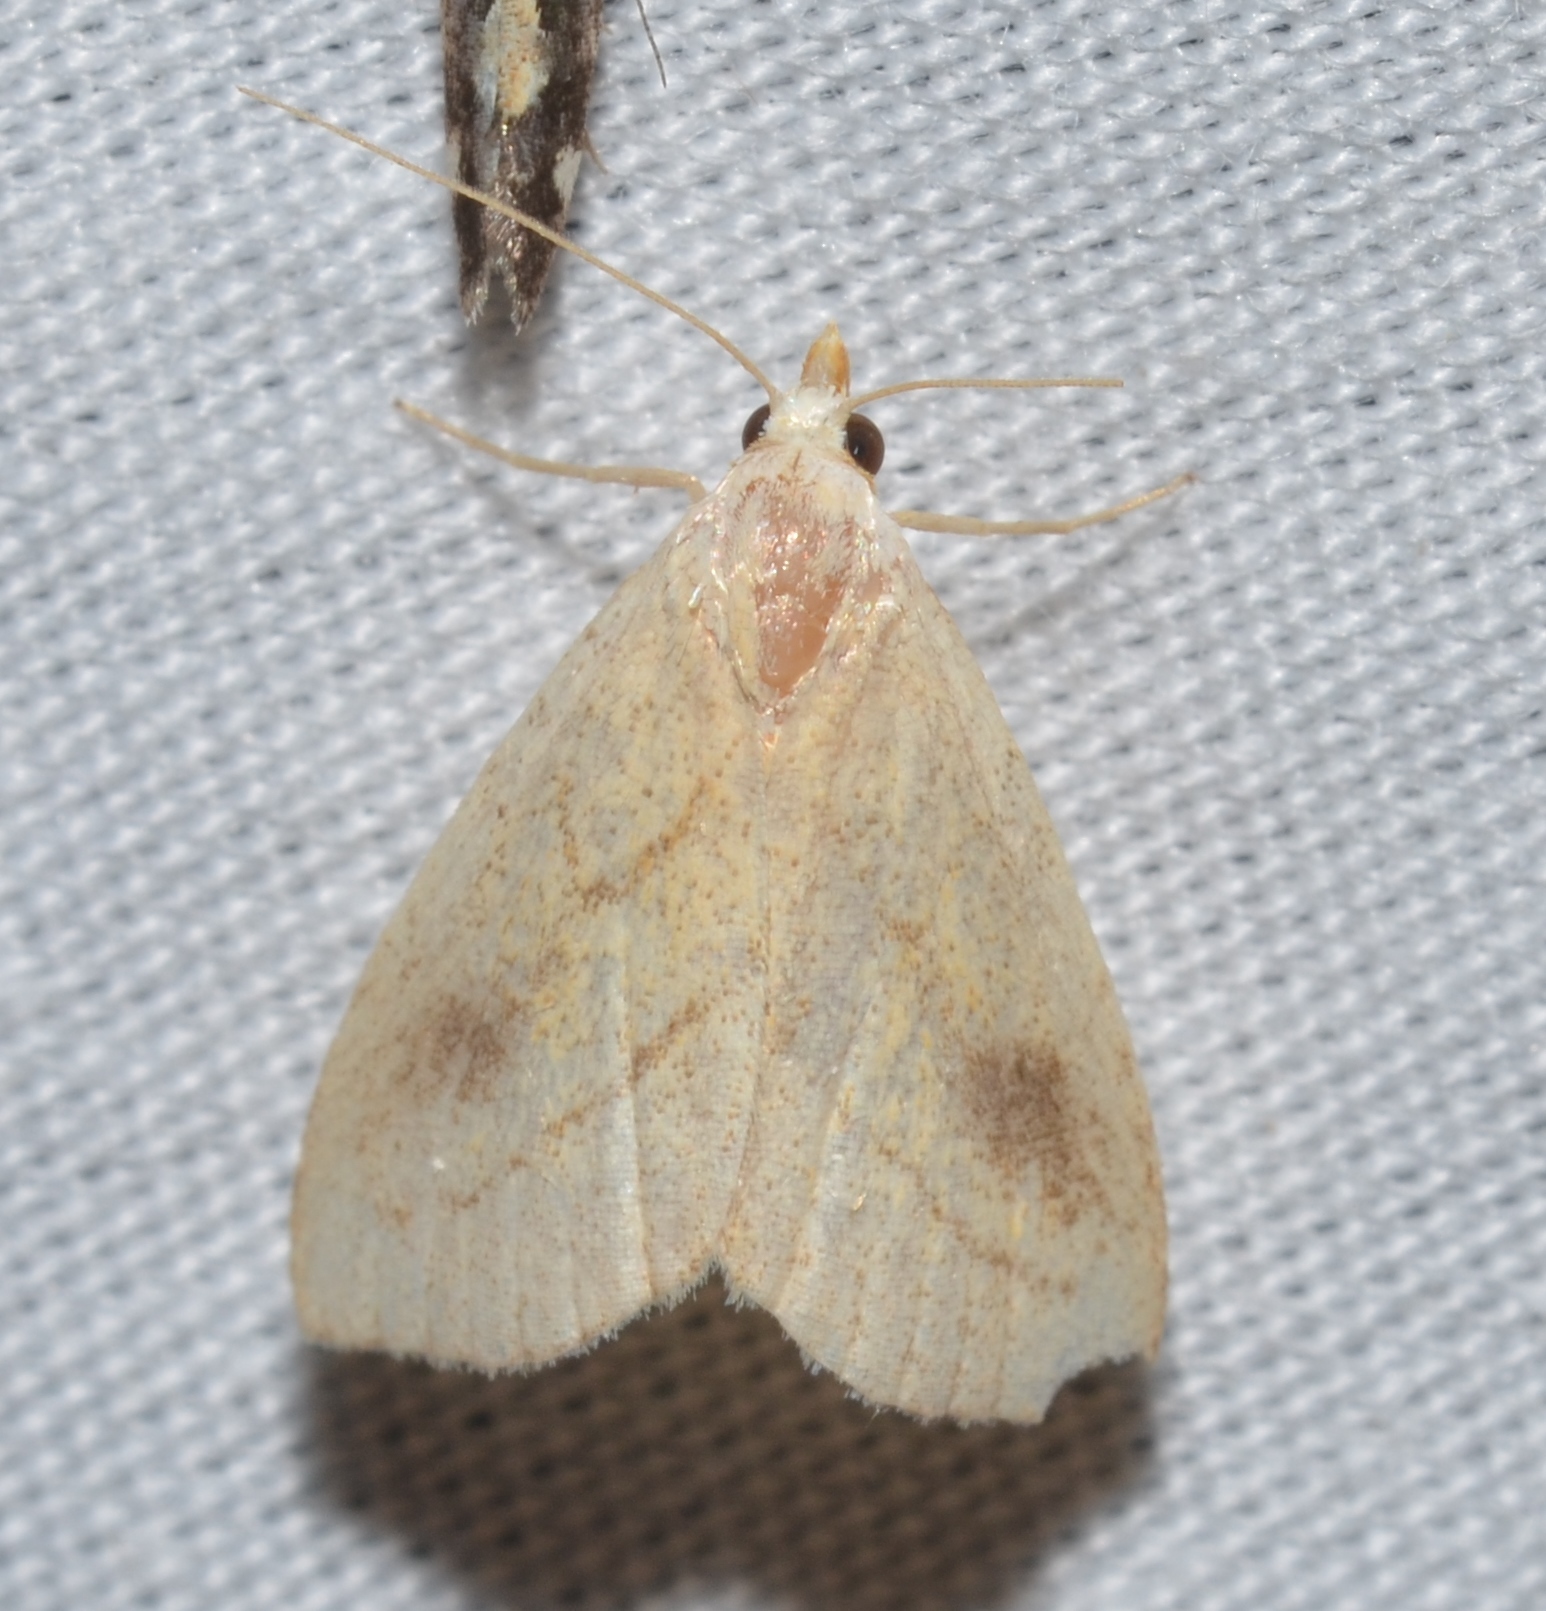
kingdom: Animalia
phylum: Arthropoda
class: Insecta
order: Lepidoptera
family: Erebidae
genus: Rivula
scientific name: Rivula propinqualis
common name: Spotted grass moth
